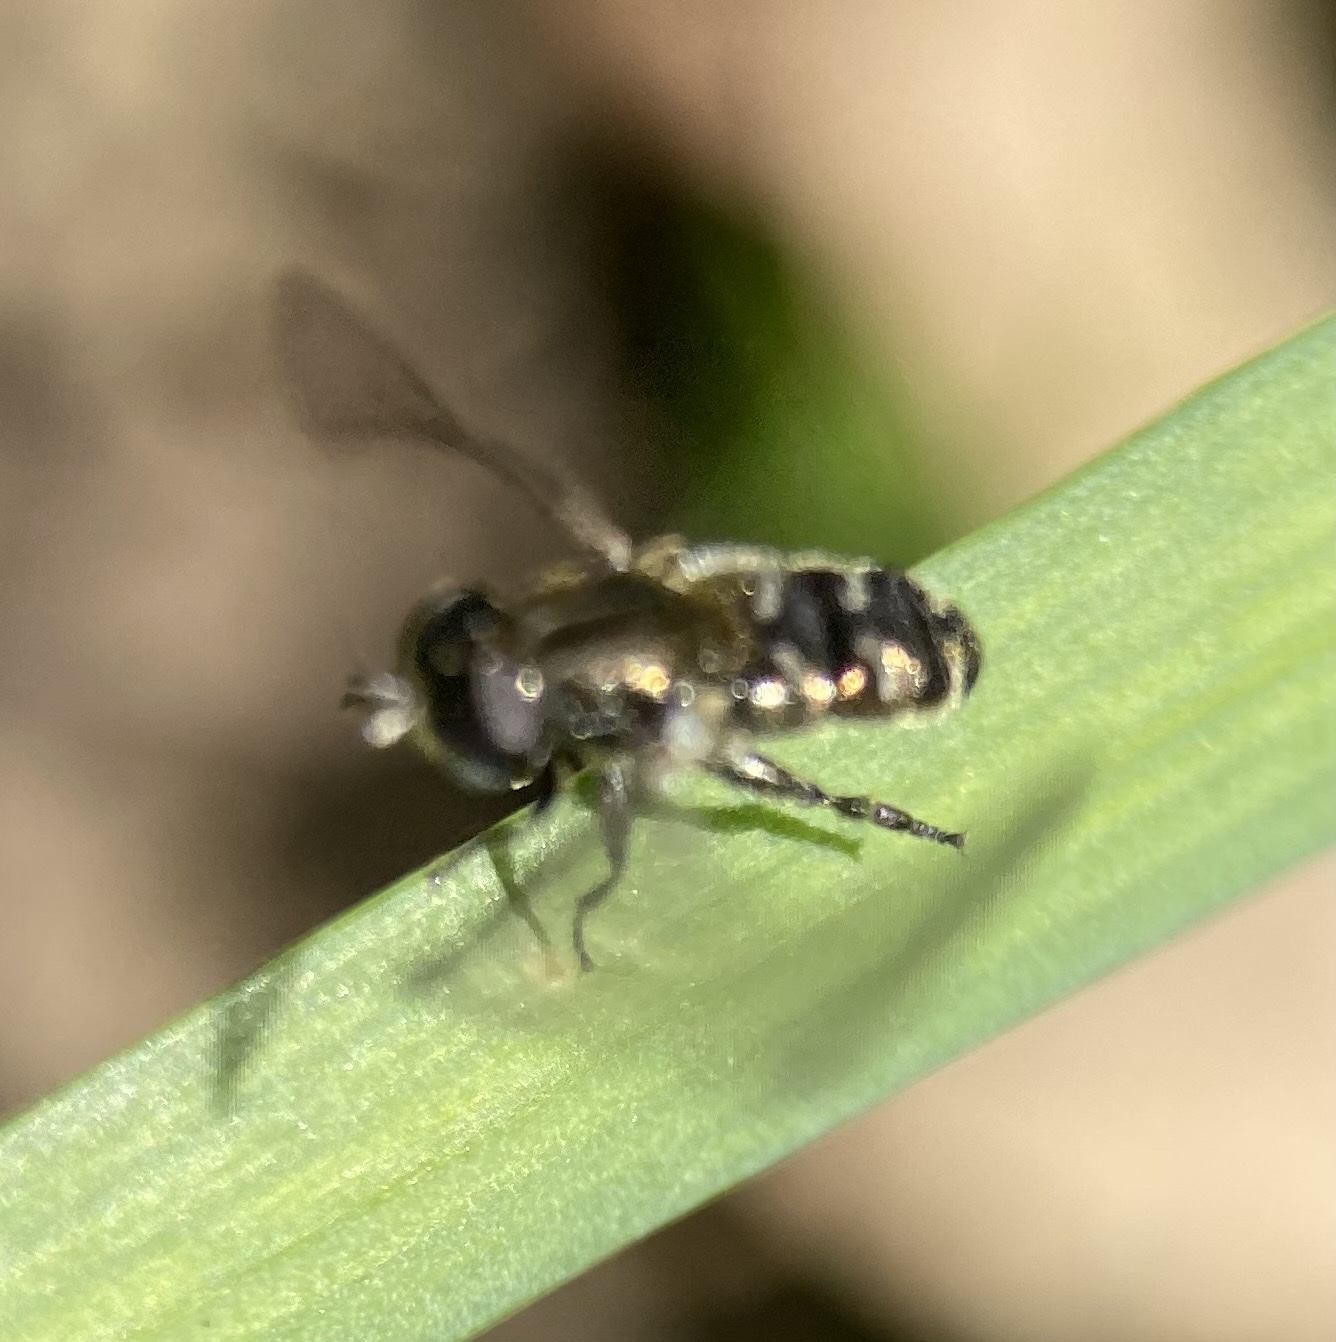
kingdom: Animalia
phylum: Arthropoda
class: Insecta
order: Diptera
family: Syrphidae
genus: Eumerus
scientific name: Eumerus
